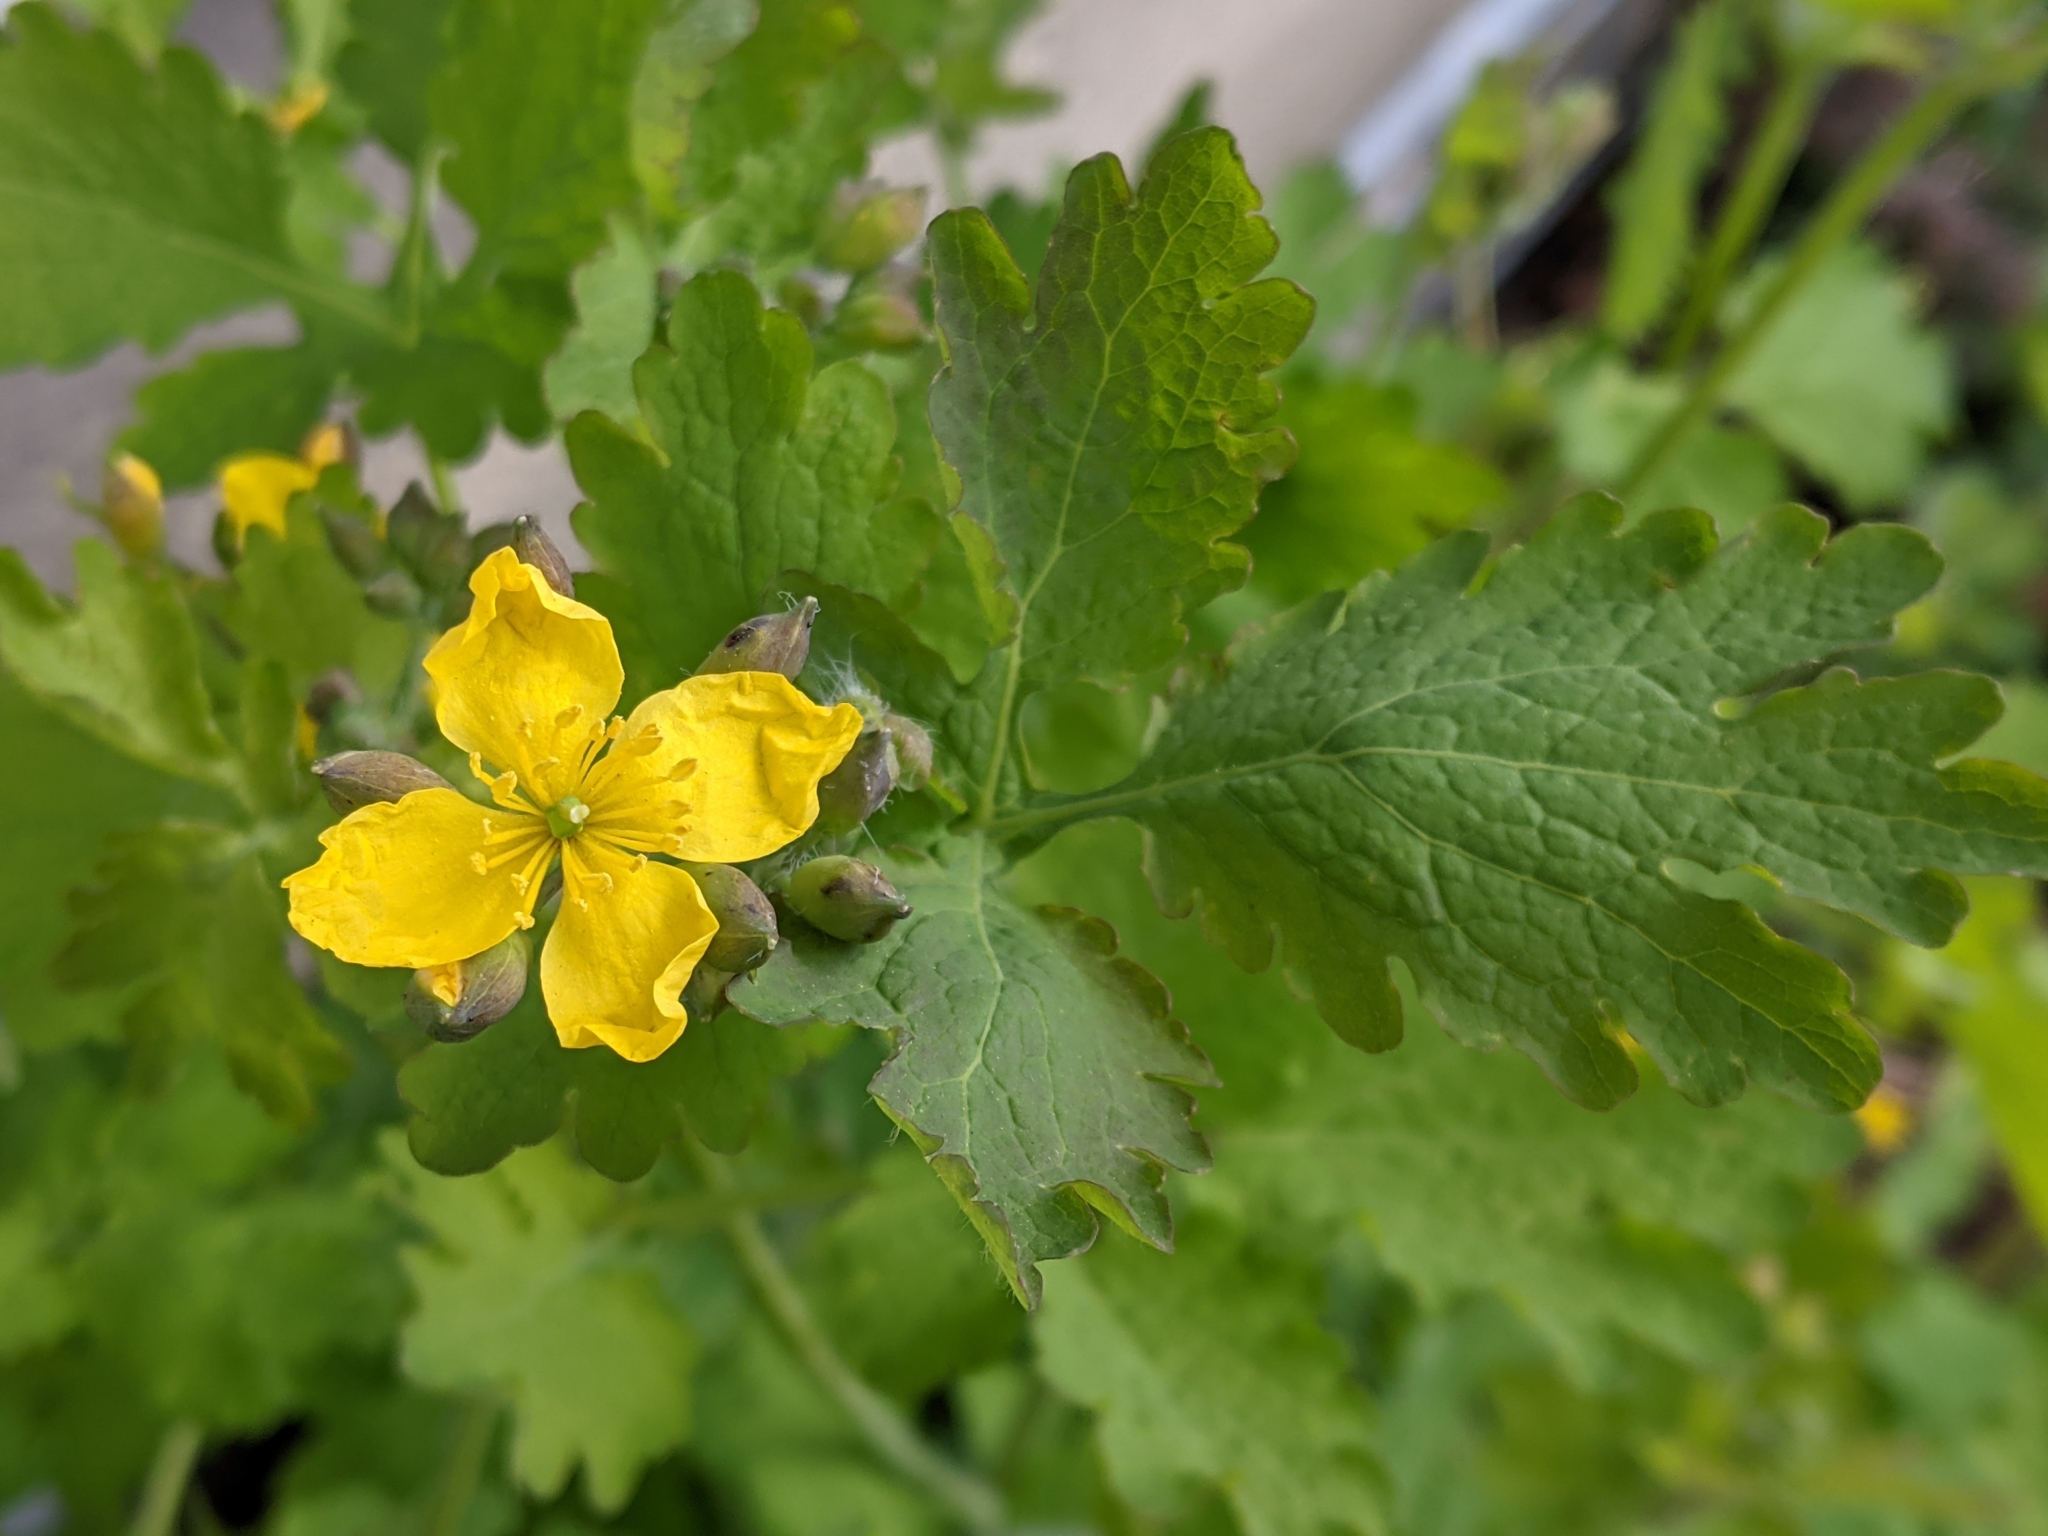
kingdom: Plantae
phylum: Tracheophyta
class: Magnoliopsida
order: Ranunculales
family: Papaveraceae
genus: Chelidonium
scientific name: Chelidonium majus
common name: Greater celandine
